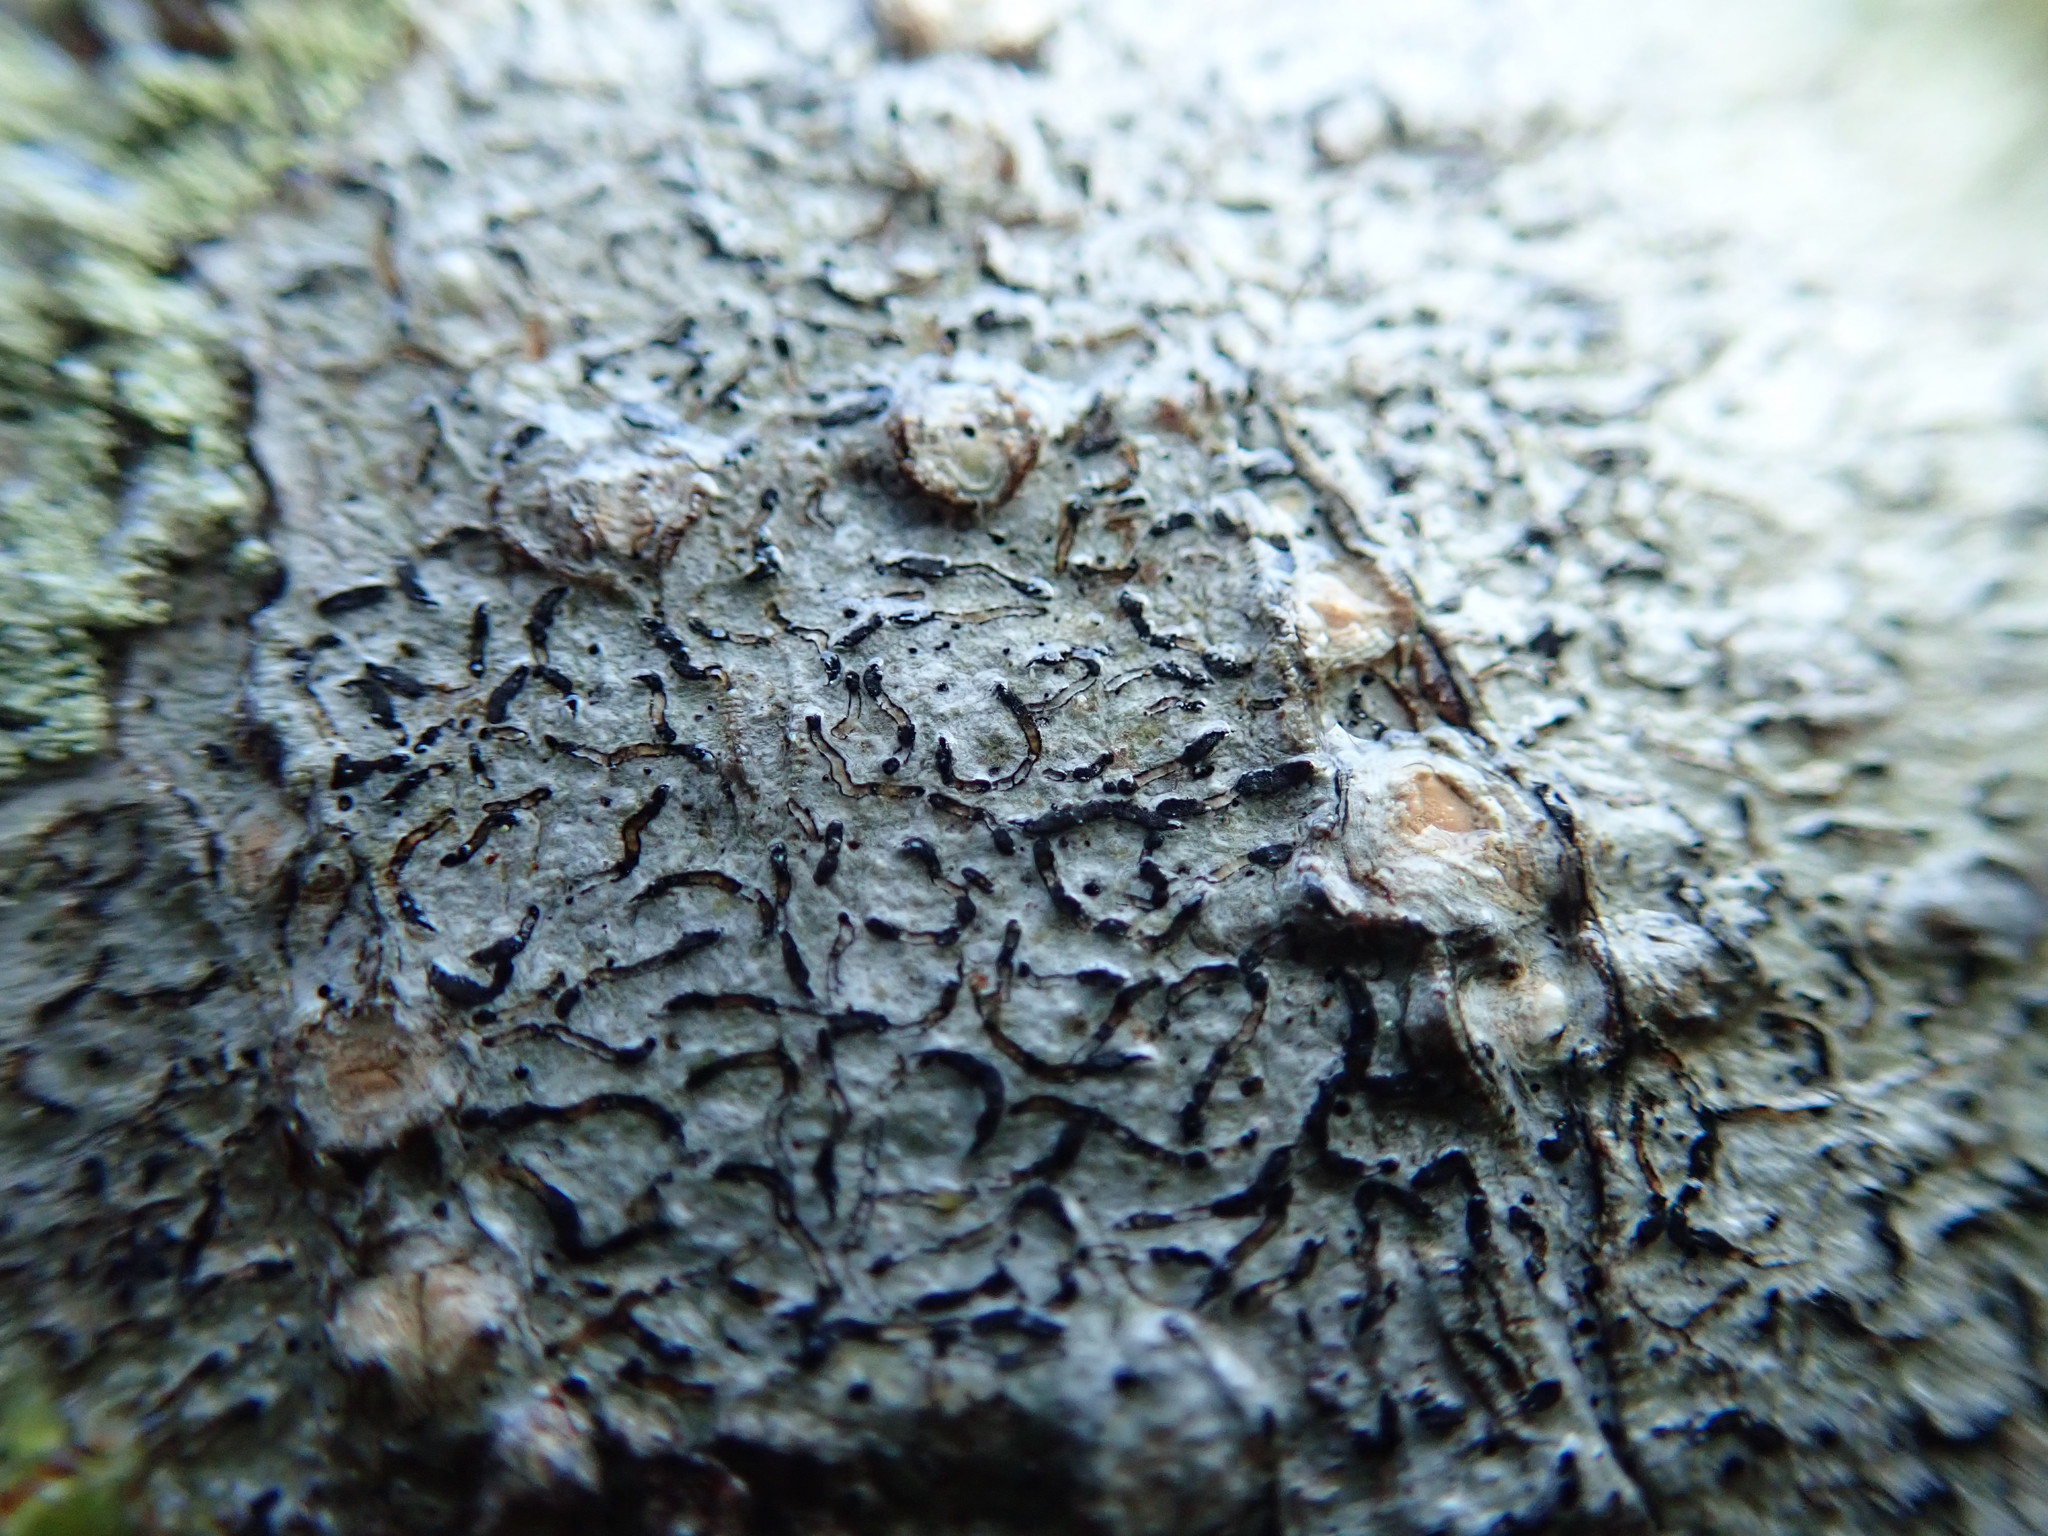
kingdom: Fungi
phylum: Ascomycota
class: Lecanoromycetes
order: Ostropales
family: Graphidaceae
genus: Graphis
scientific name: Graphis scripta
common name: Script lichen
